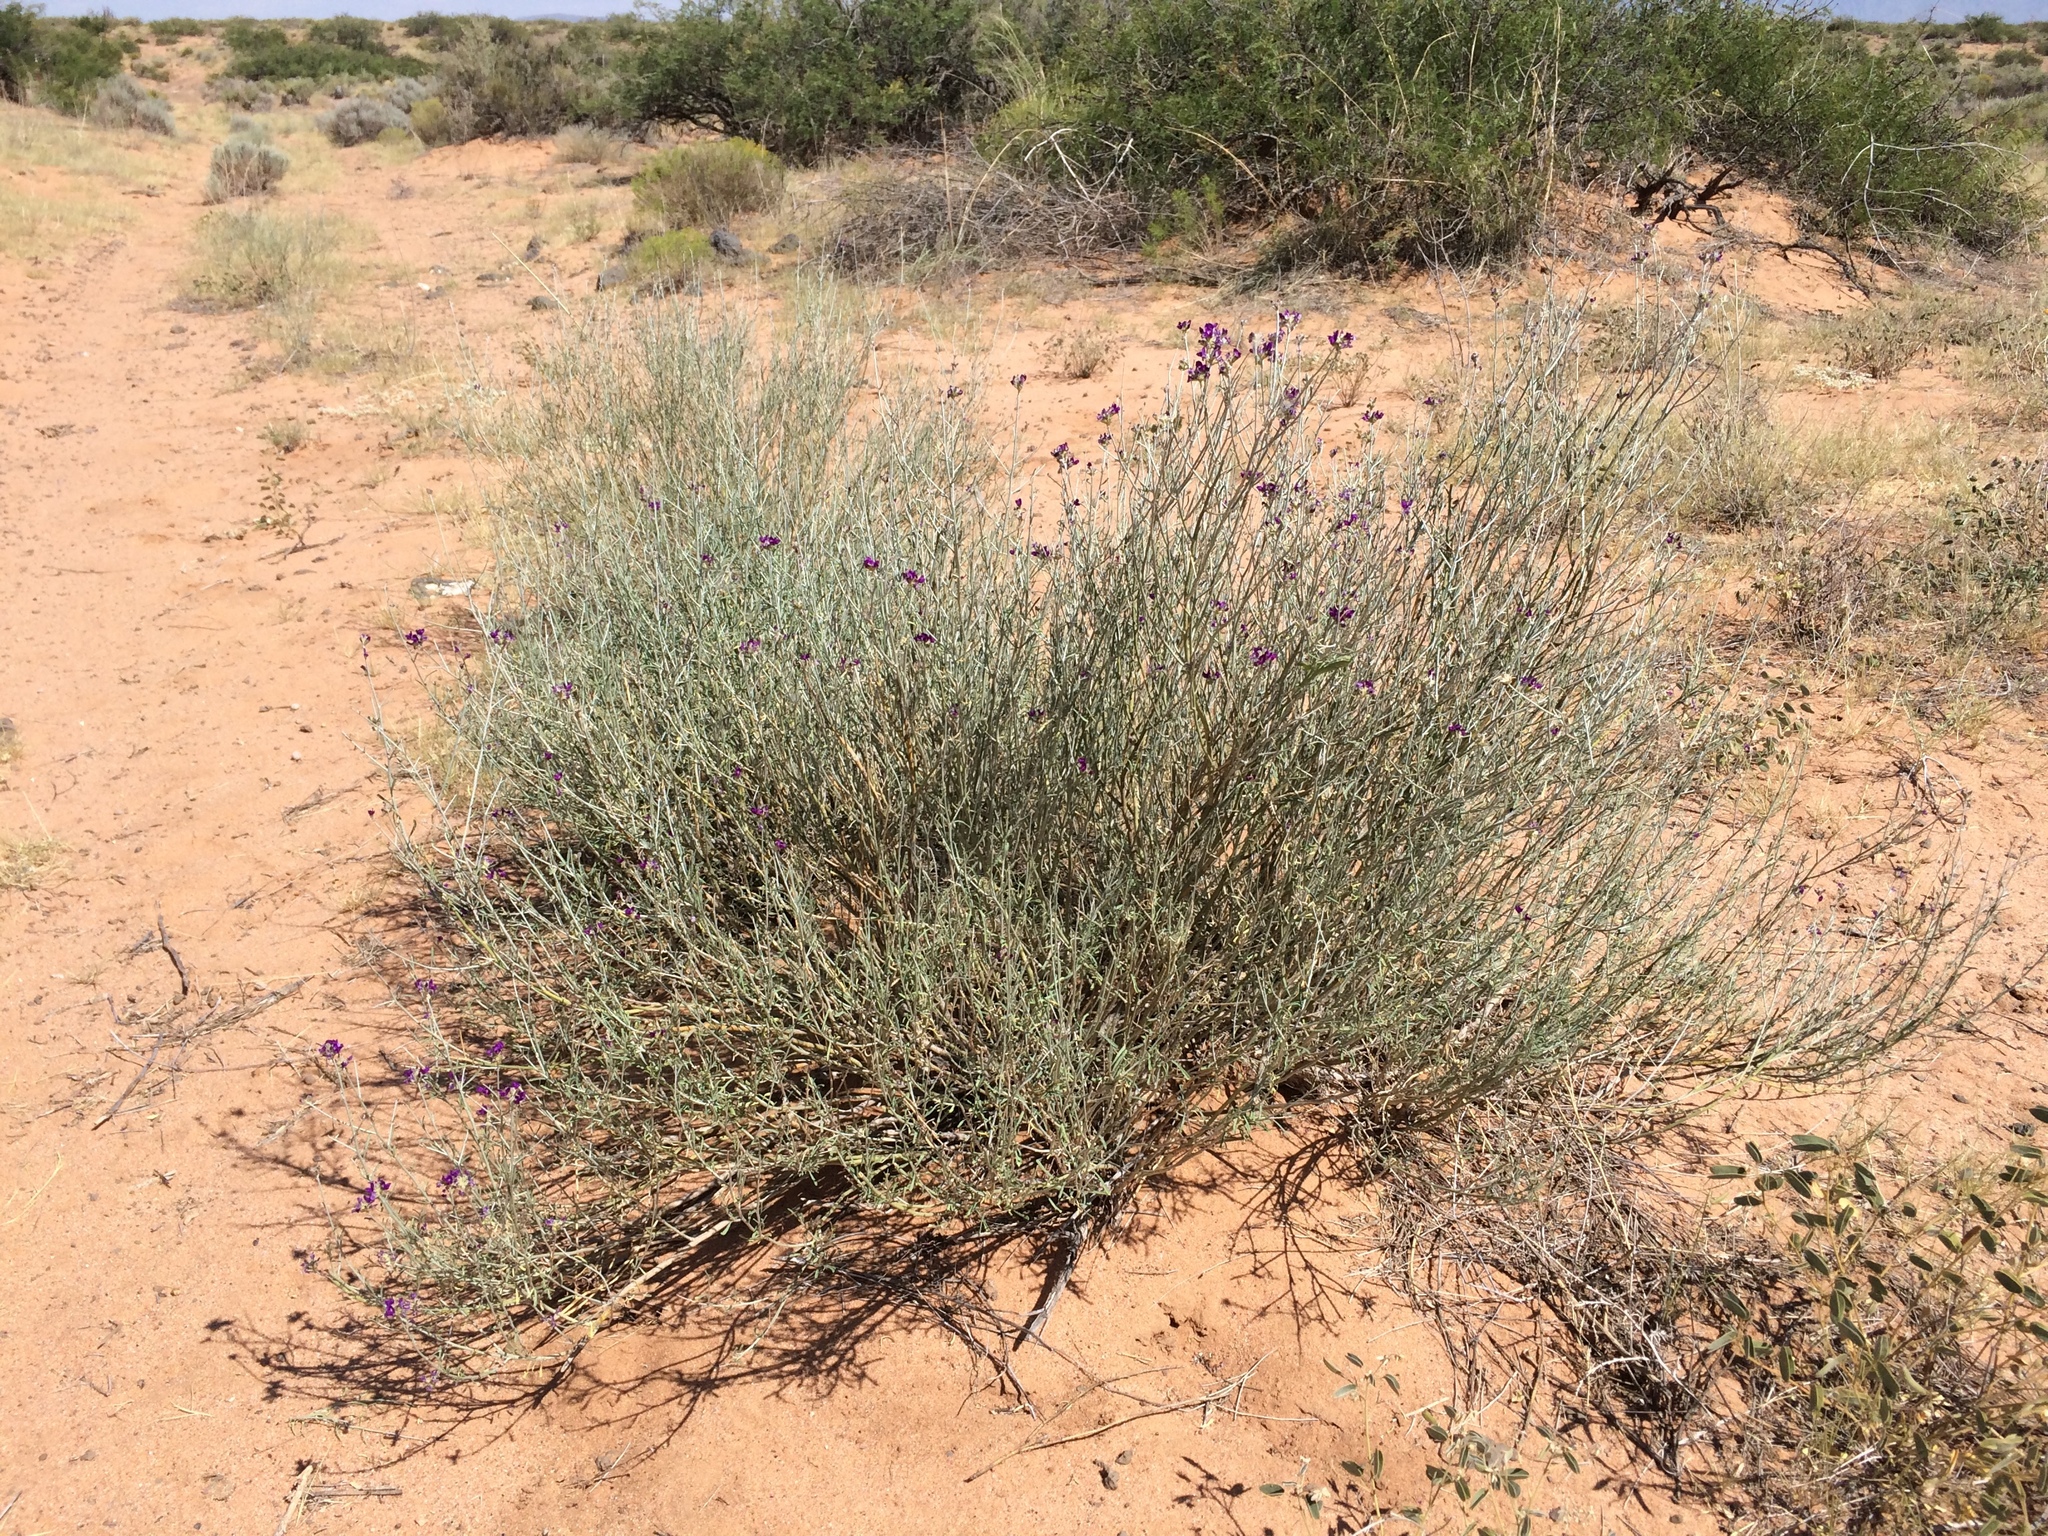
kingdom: Plantae
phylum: Tracheophyta
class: Magnoliopsida
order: Fabales
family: Fabaceae
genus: Psorothamnus
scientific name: Psorothamnus scoparius
